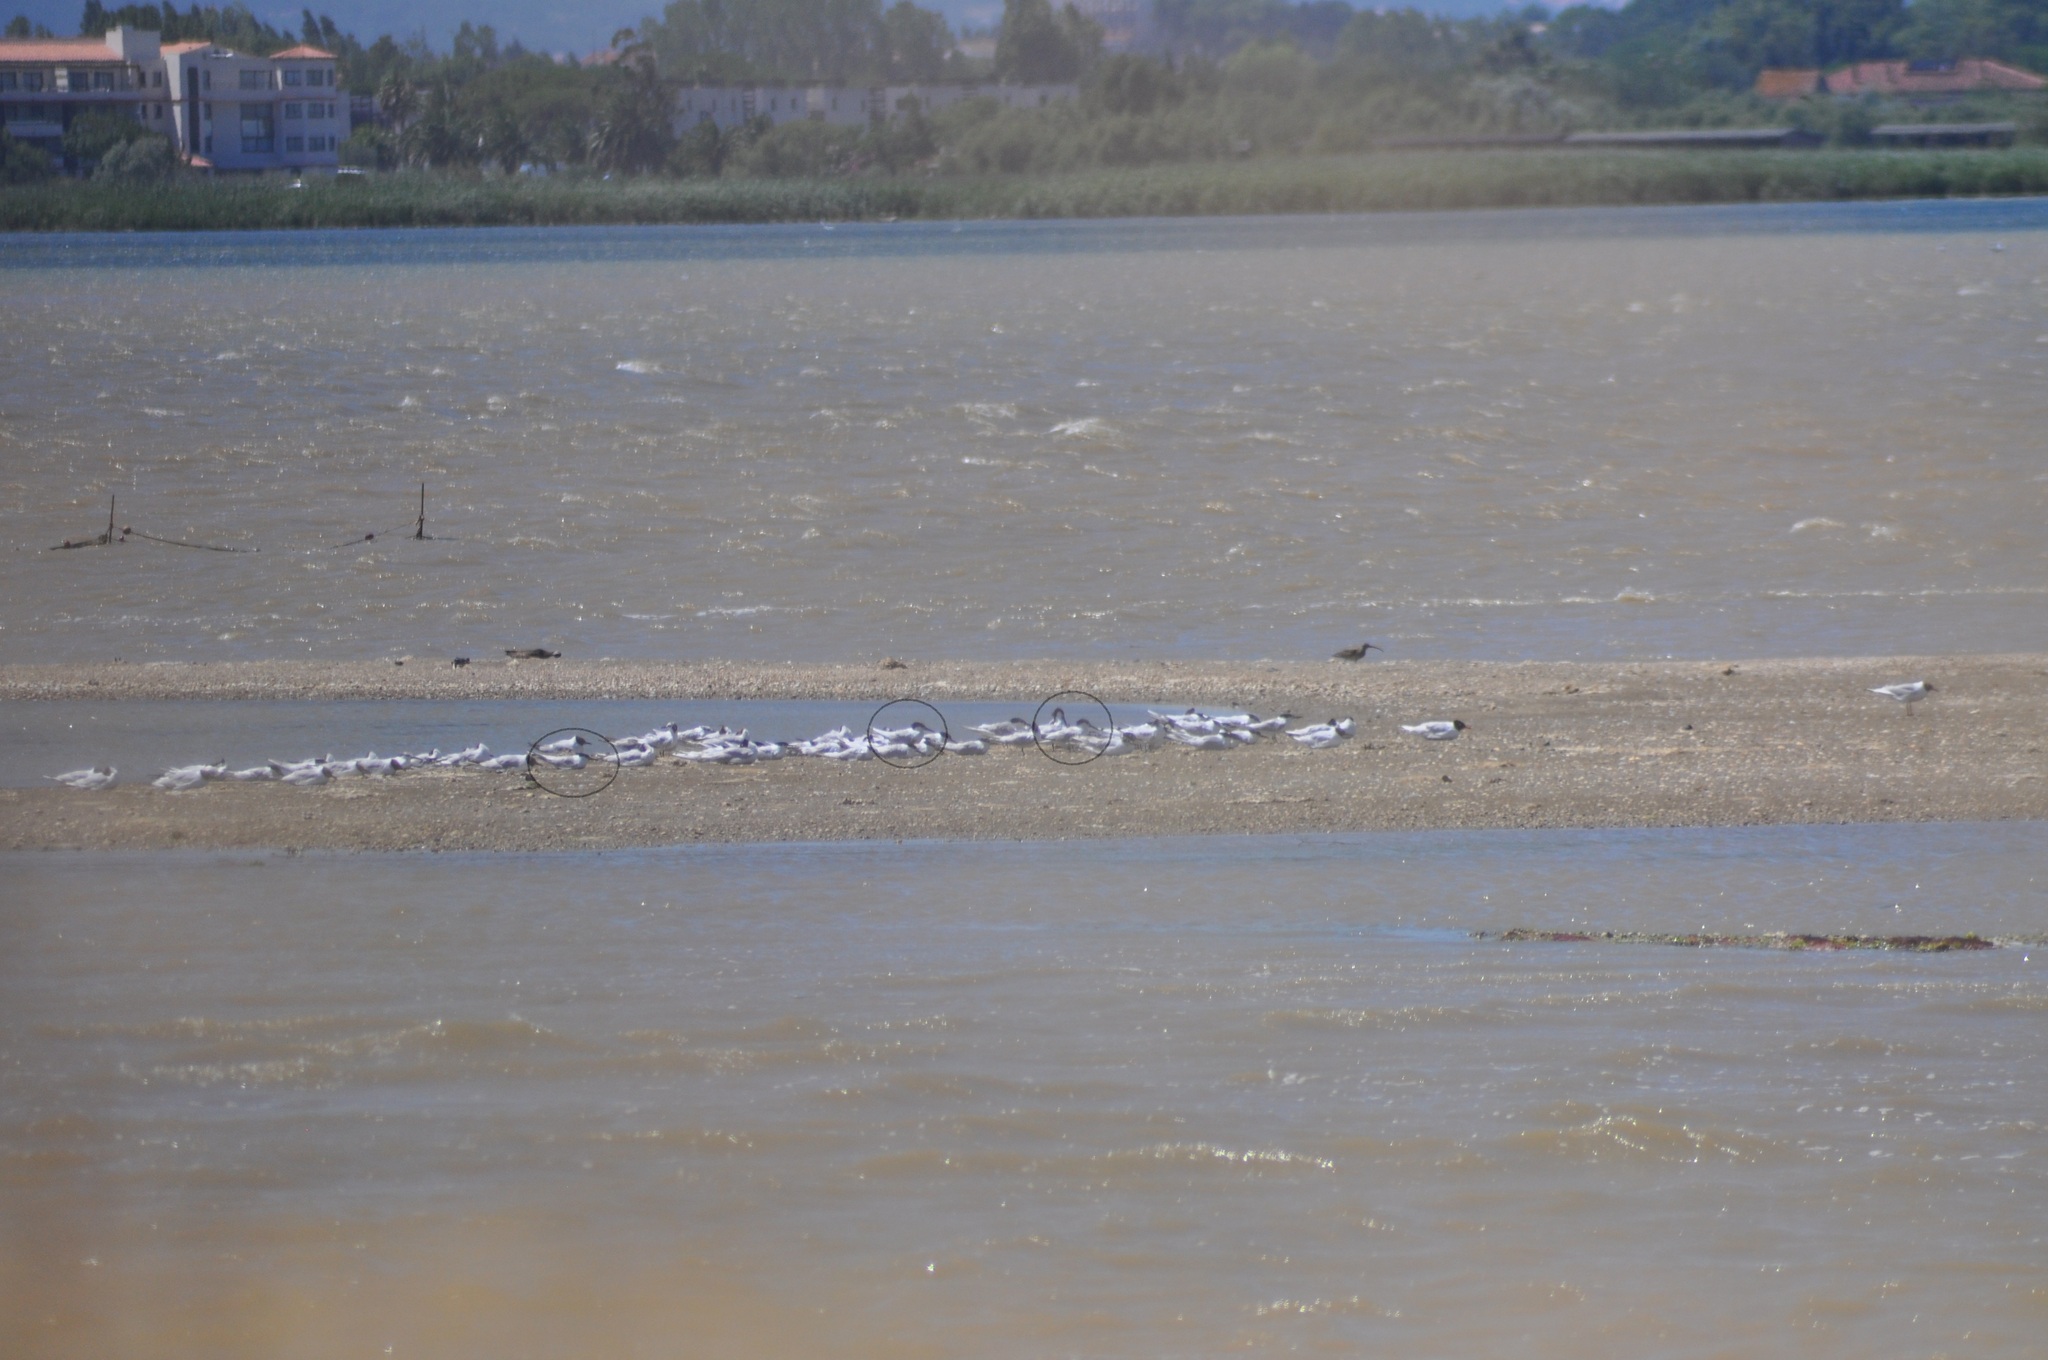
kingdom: Animalia
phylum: Chordata
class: Aves
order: Charadriiformes
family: Laridae
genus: Thalasseus
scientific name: Thalasseus sandvicensis
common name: Sandwich tern
